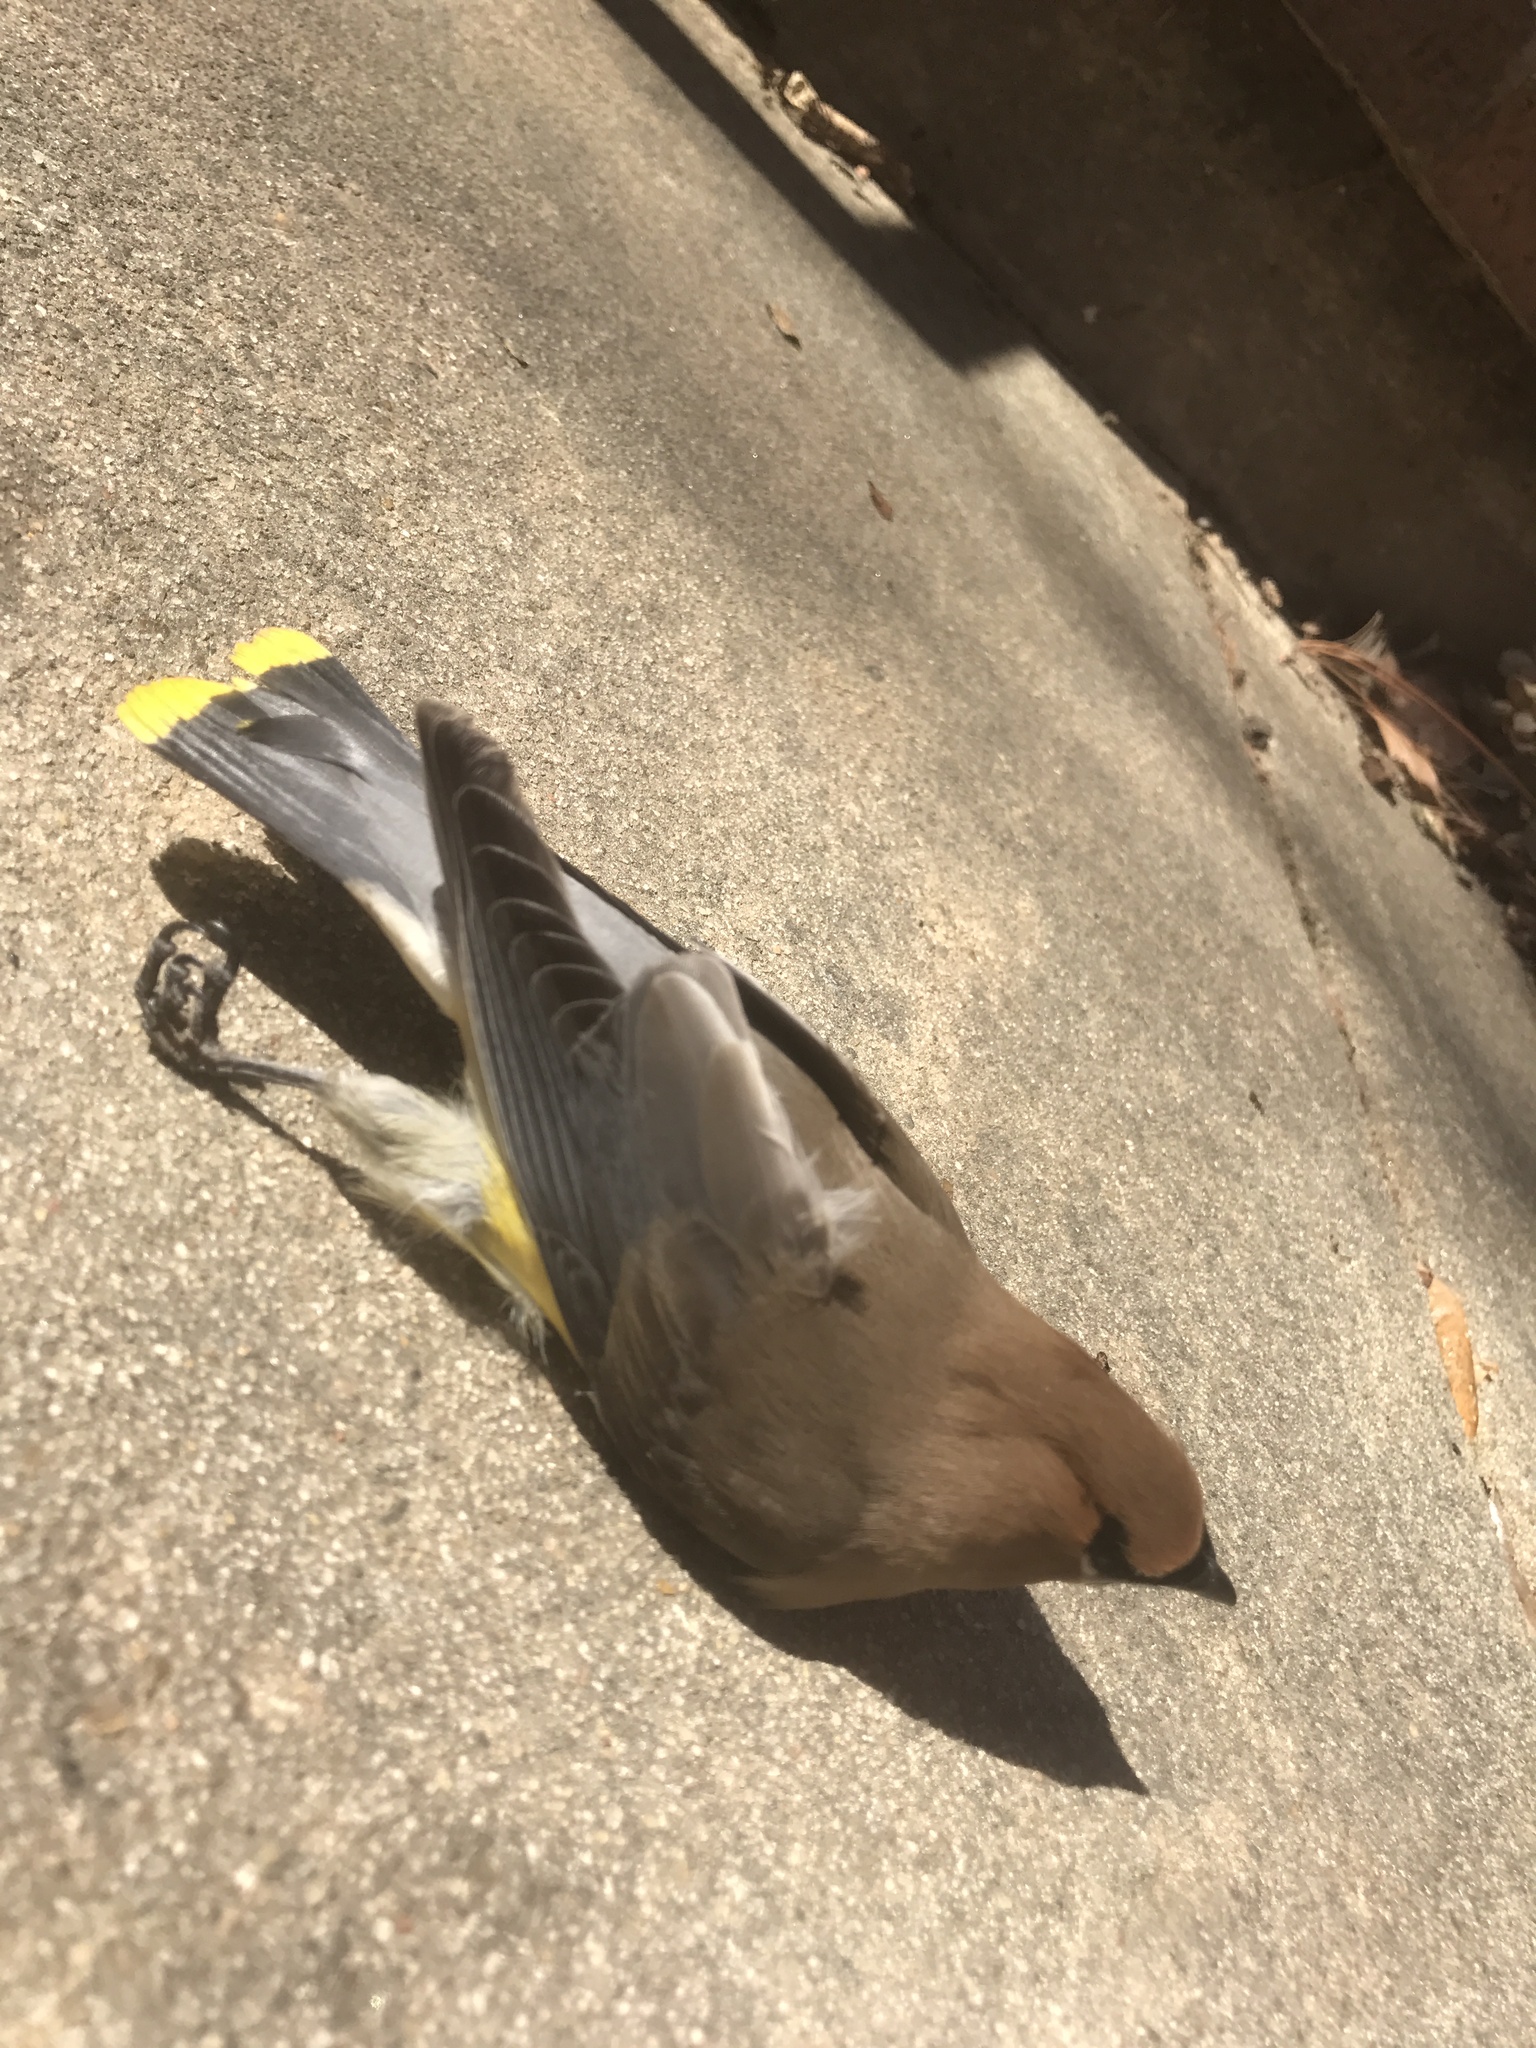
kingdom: Animalia
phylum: Chordata
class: Aves
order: Passeriformes
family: Bombycillidae
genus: Bombycilla
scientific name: Bombycilla cedrorum
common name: Cedar waxwing
